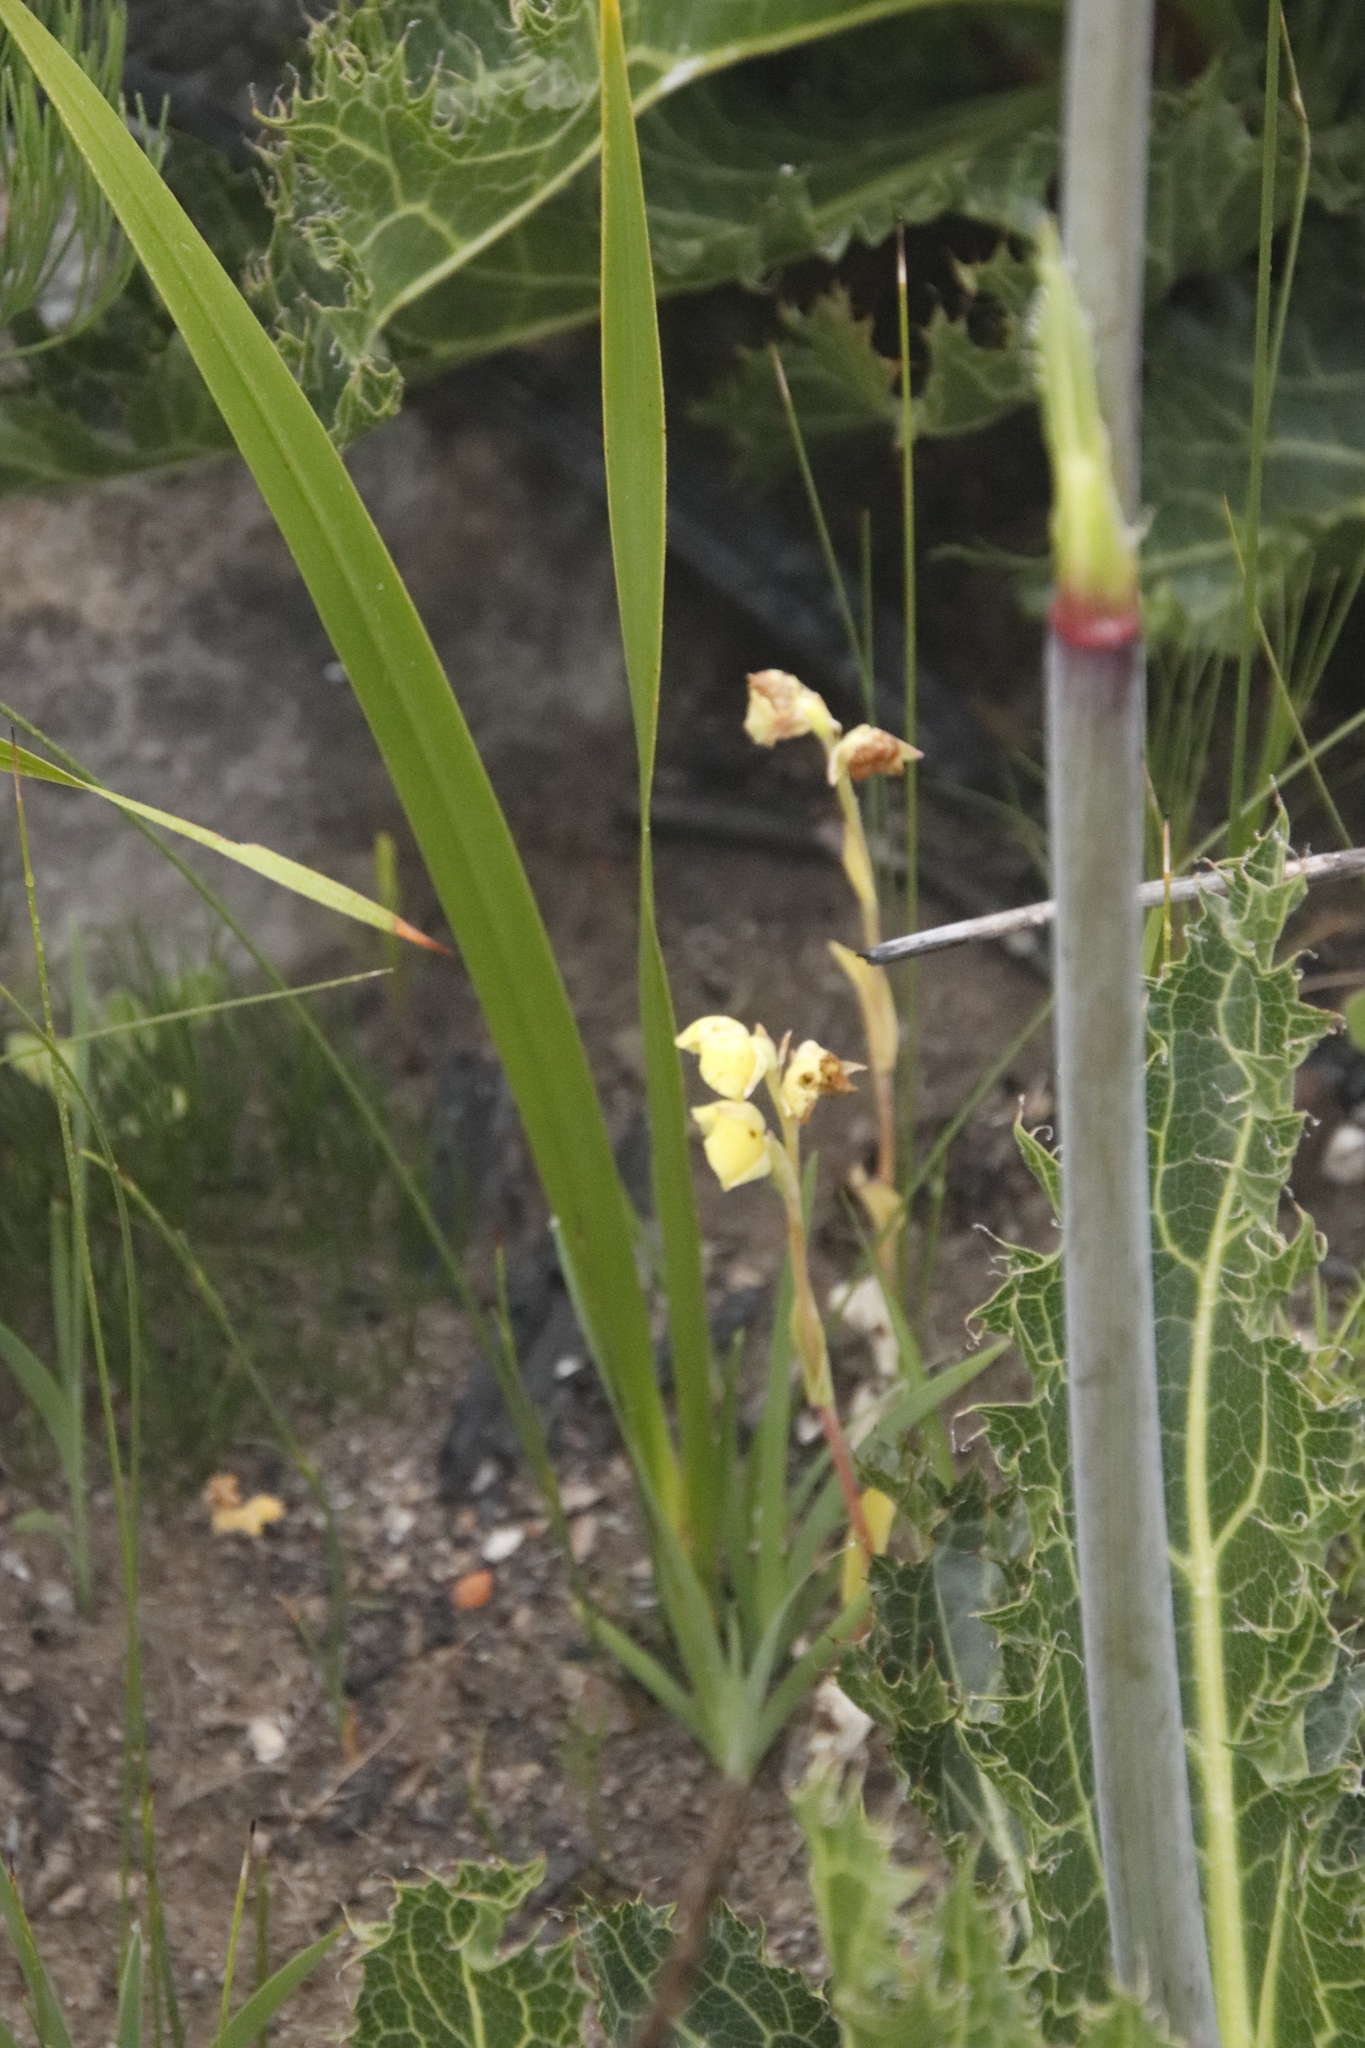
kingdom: Plantae
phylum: Tracheophyta
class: Liliopsida
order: Asparagales
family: Orchidaceae
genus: Pterygodium
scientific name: Pterygodium catholicum
